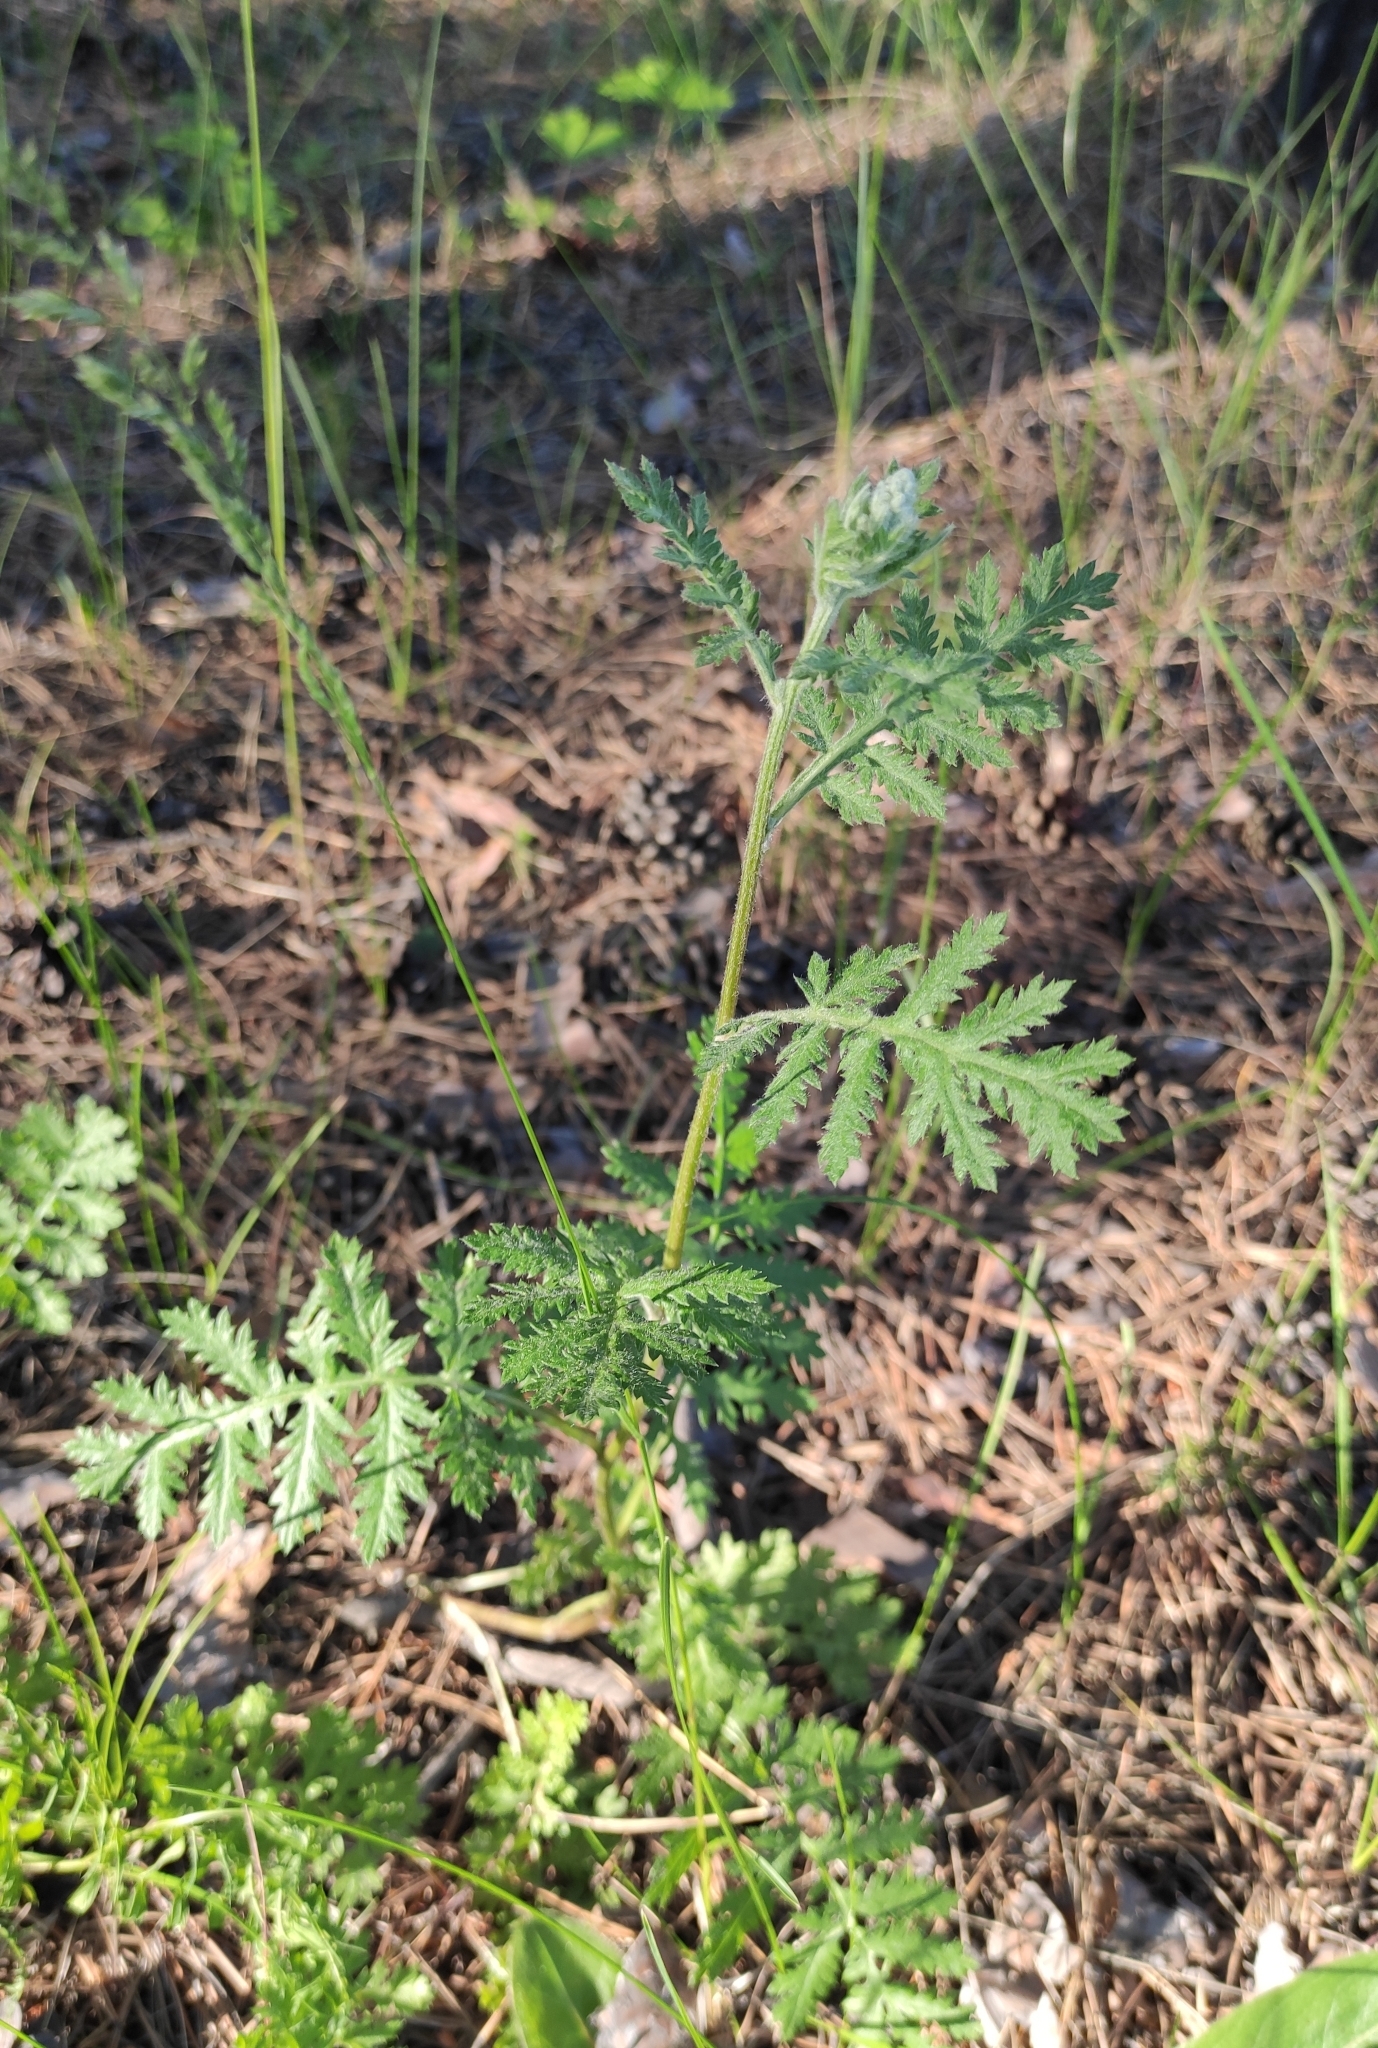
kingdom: Plantae
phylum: Tracheophyta
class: Magnoliopsida
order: Asterales
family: Asteraceae
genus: Artemisia
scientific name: Artemisia tanacetifolia
